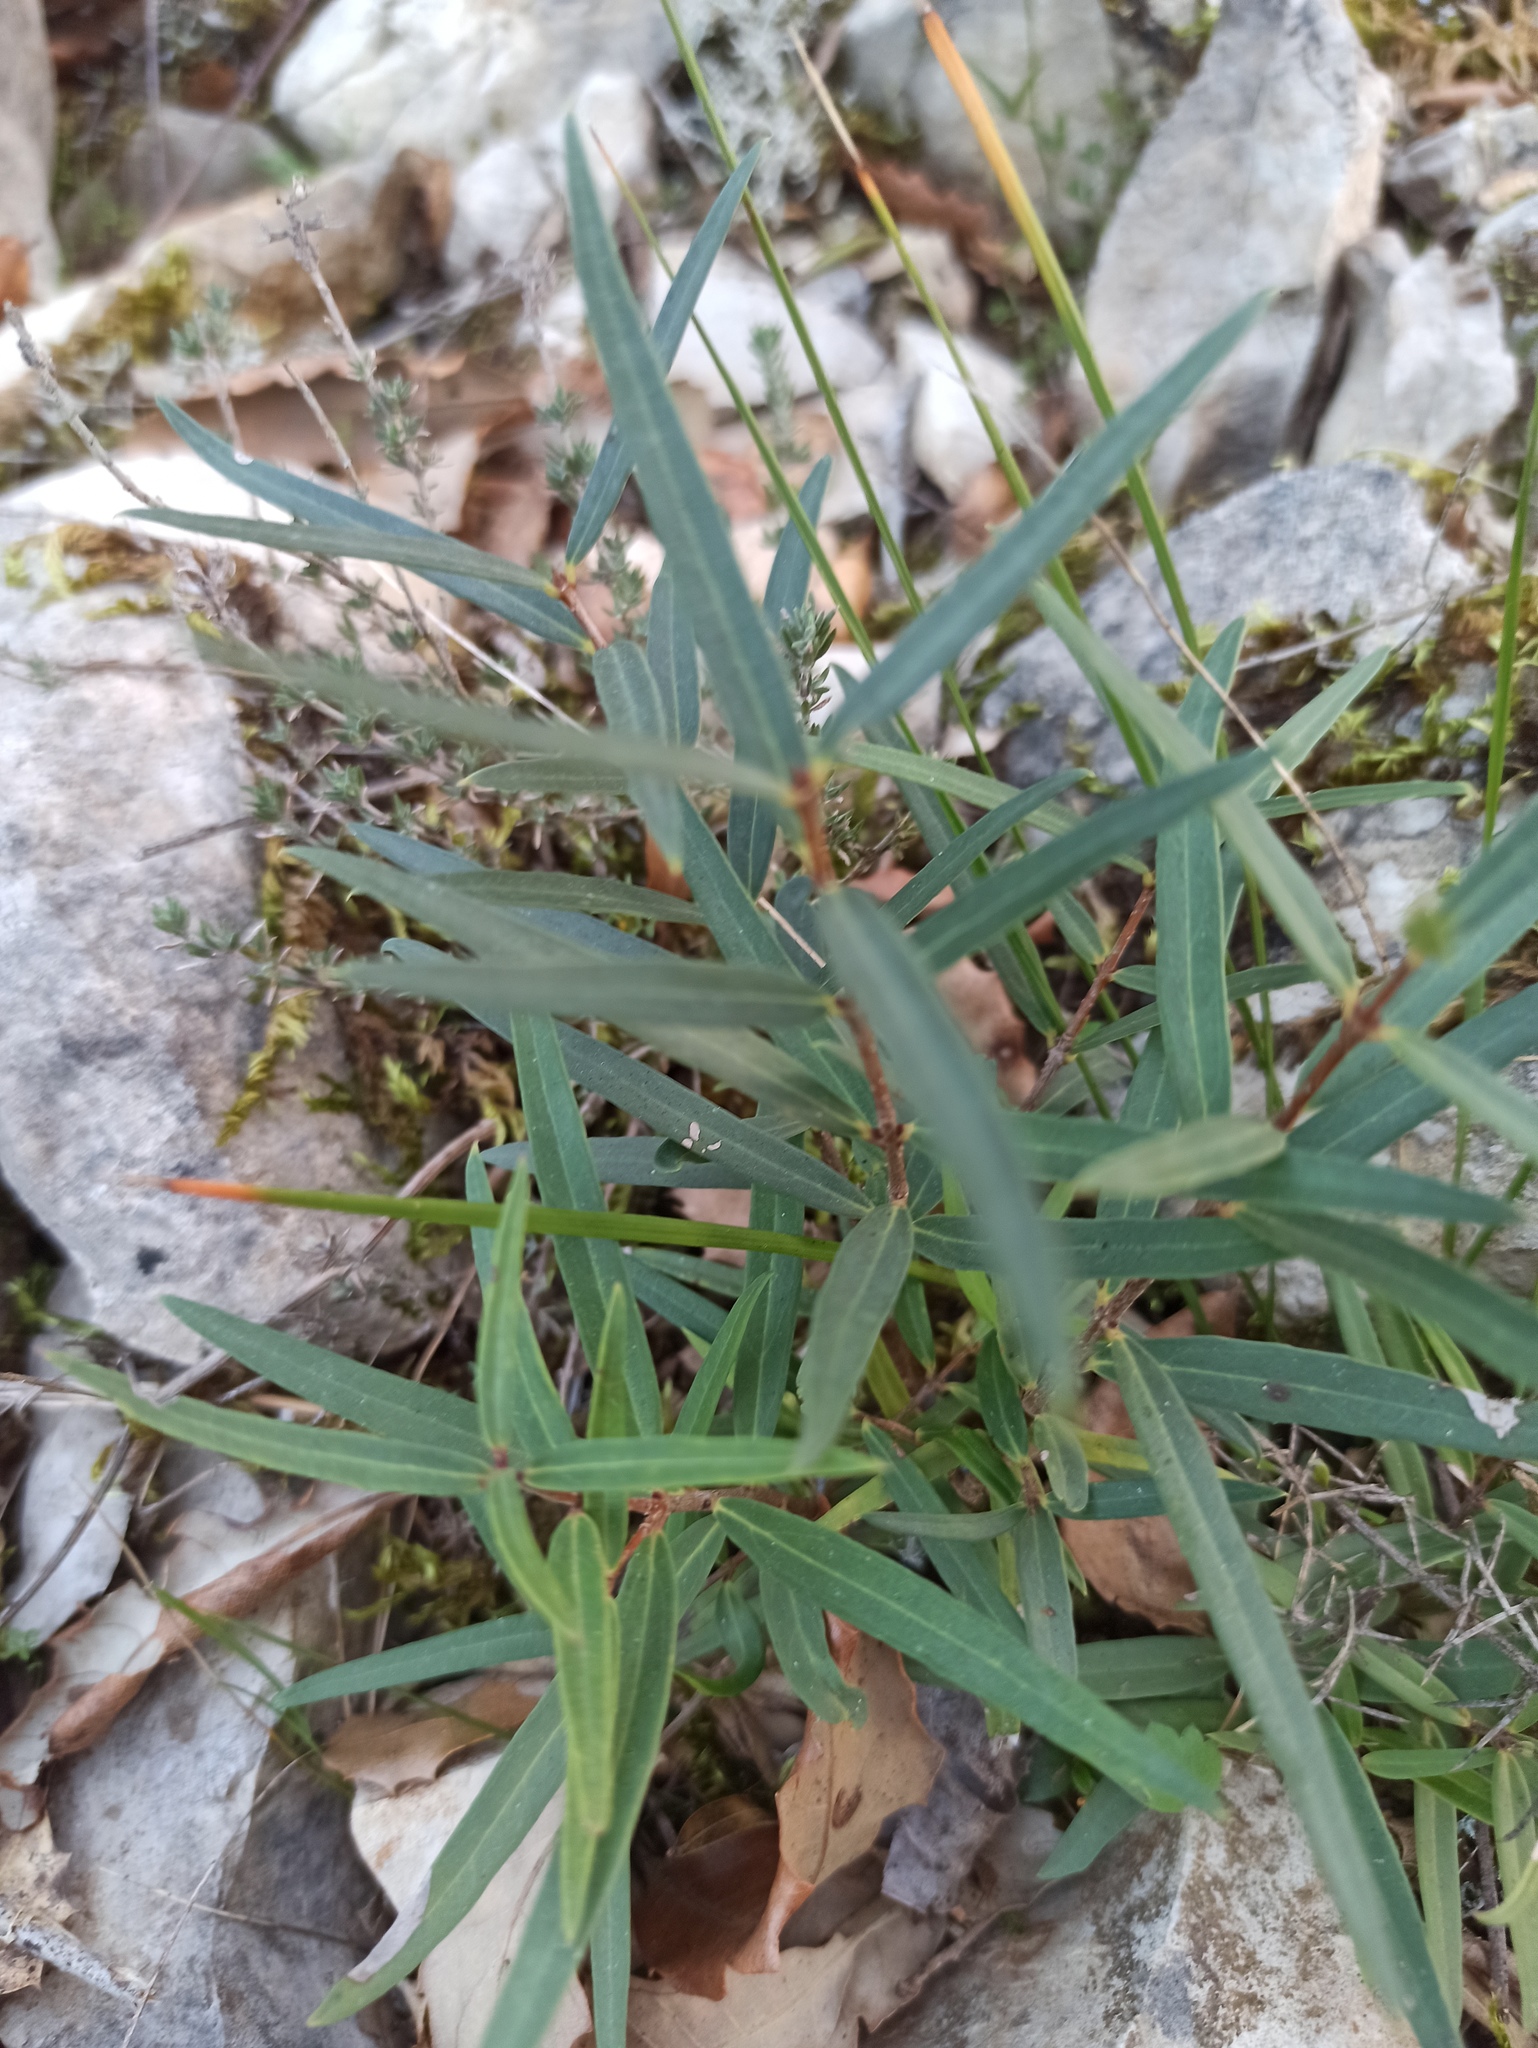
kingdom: Plantae
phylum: Tracheophyta
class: Magnoliopsida
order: Lamiales
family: Oleaceae
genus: Phillyrea
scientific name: Phillyrea angustifolia
